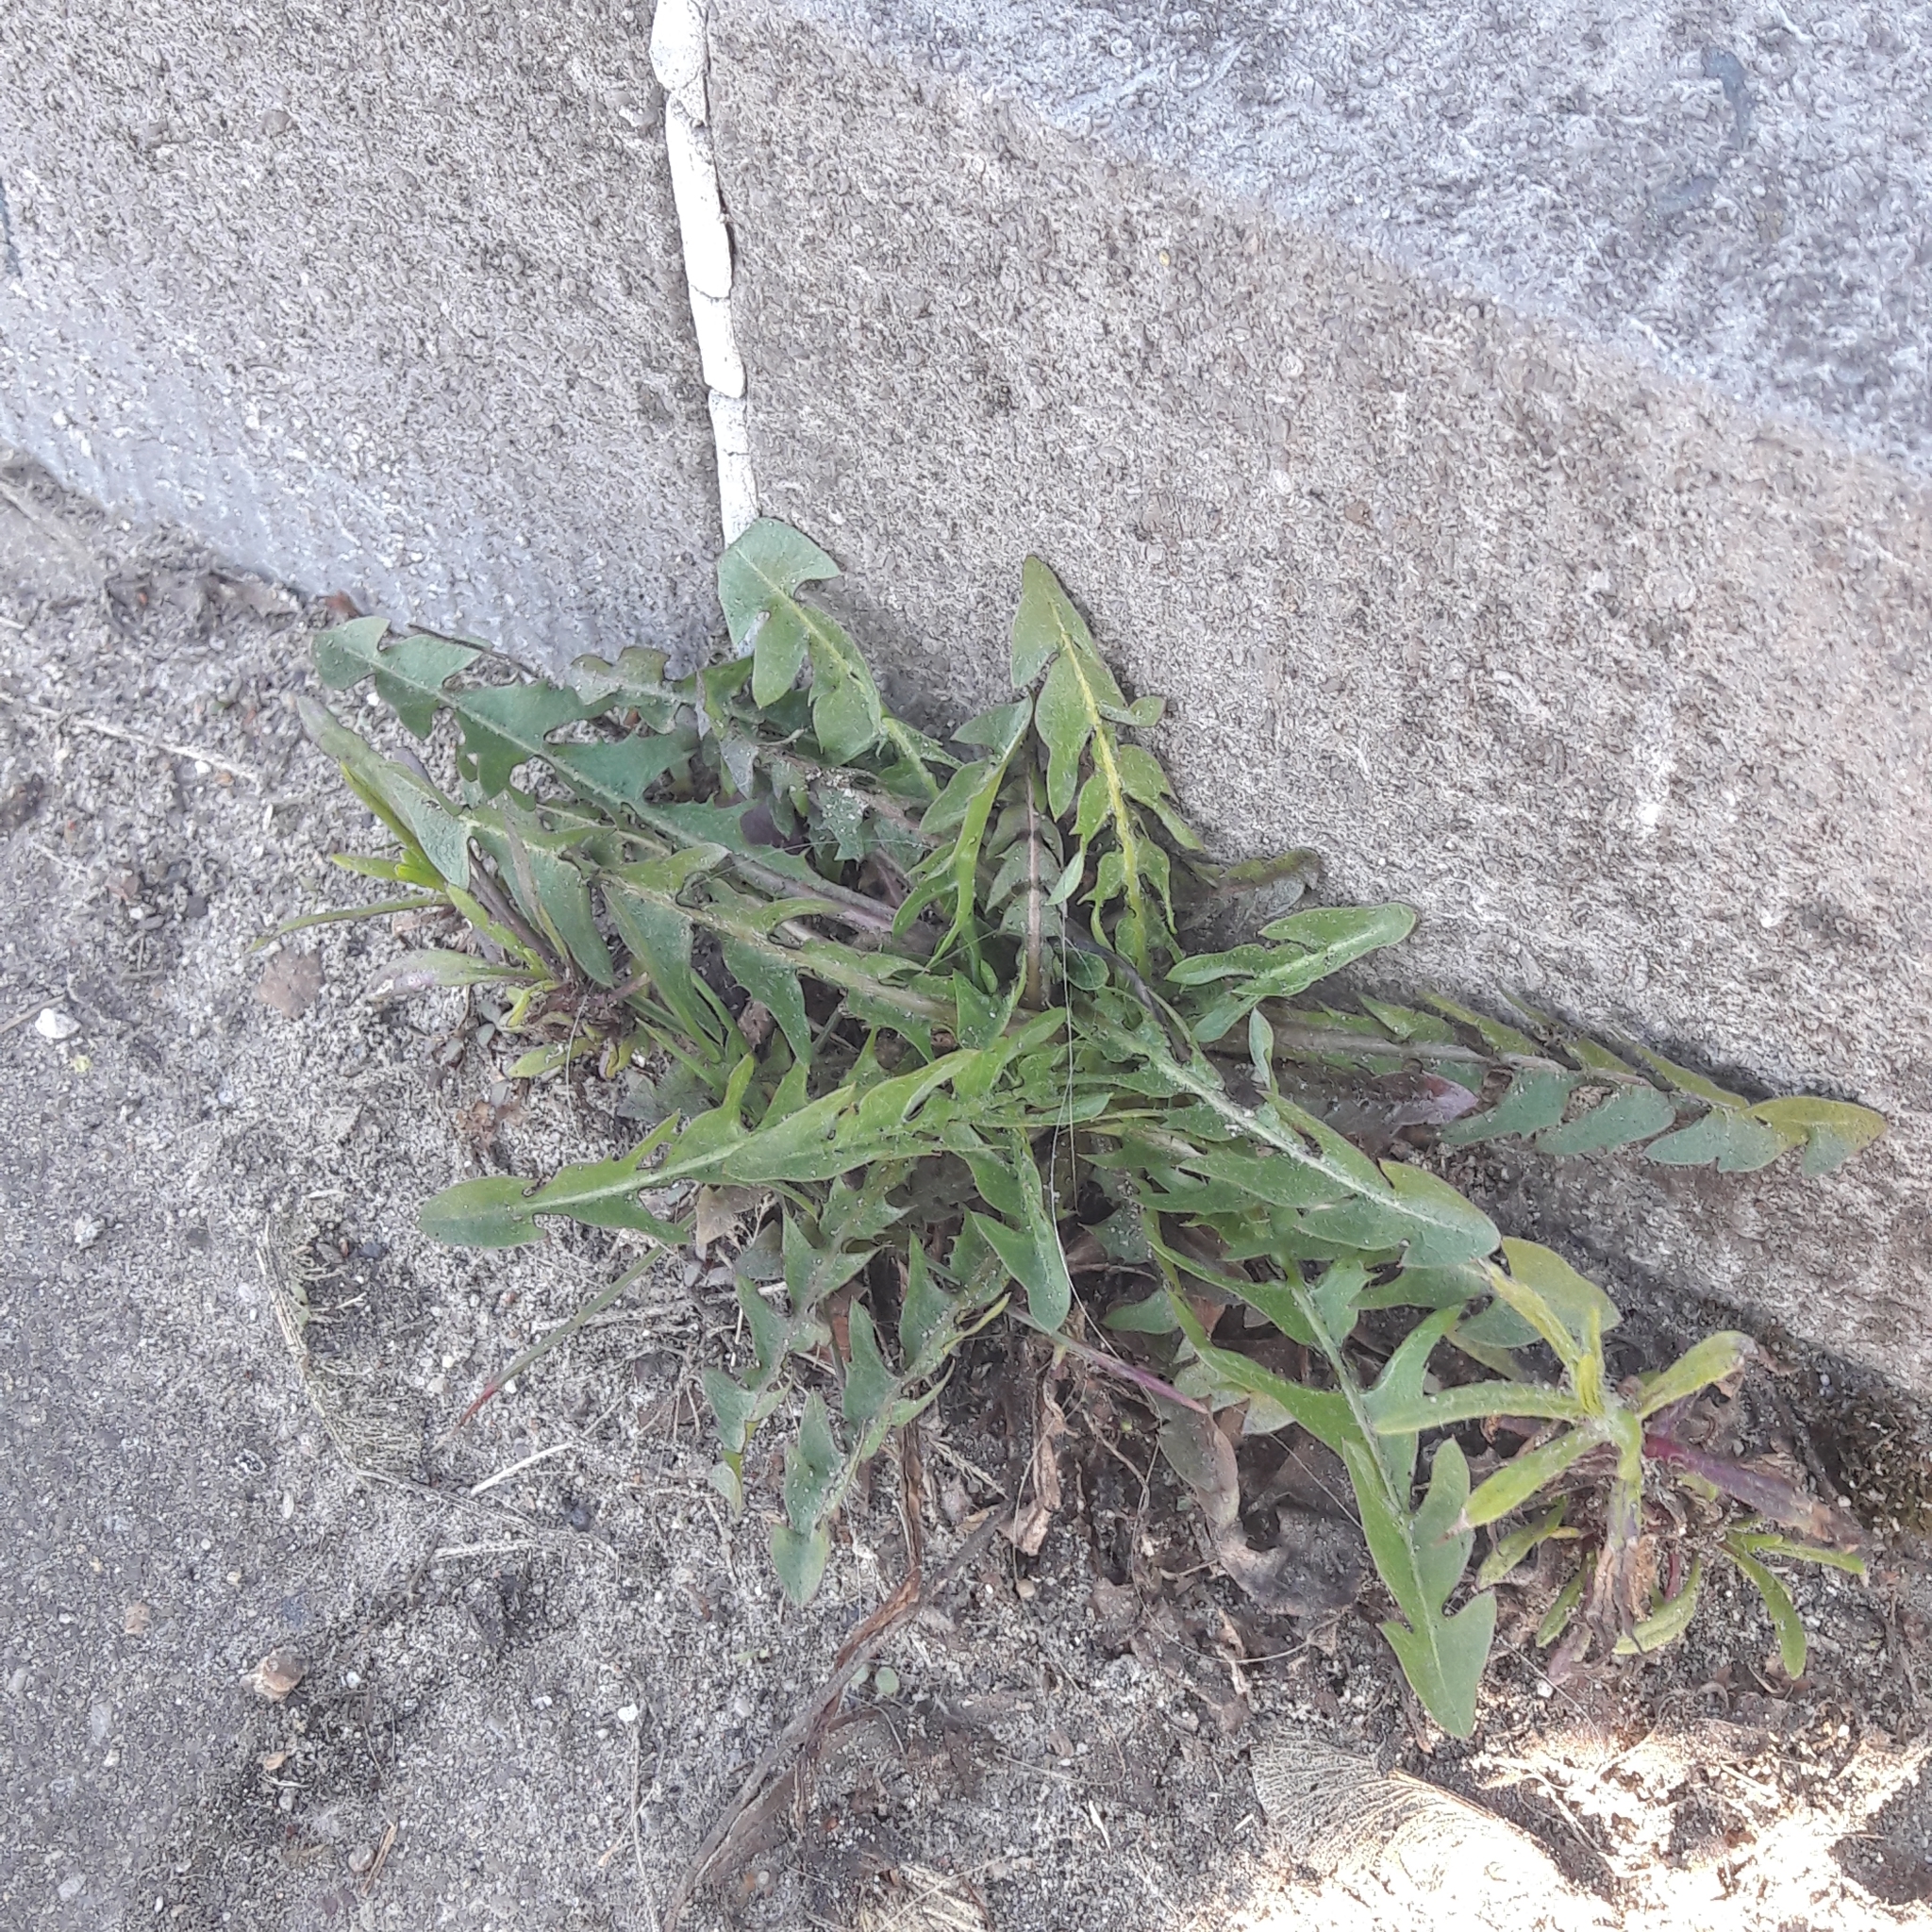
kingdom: Plantae
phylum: Tracheophyta
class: Magnoliopsida
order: Asterales
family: Asteraceae
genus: Taraxacum
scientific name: Taraxacum officinale
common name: Common dandelion
